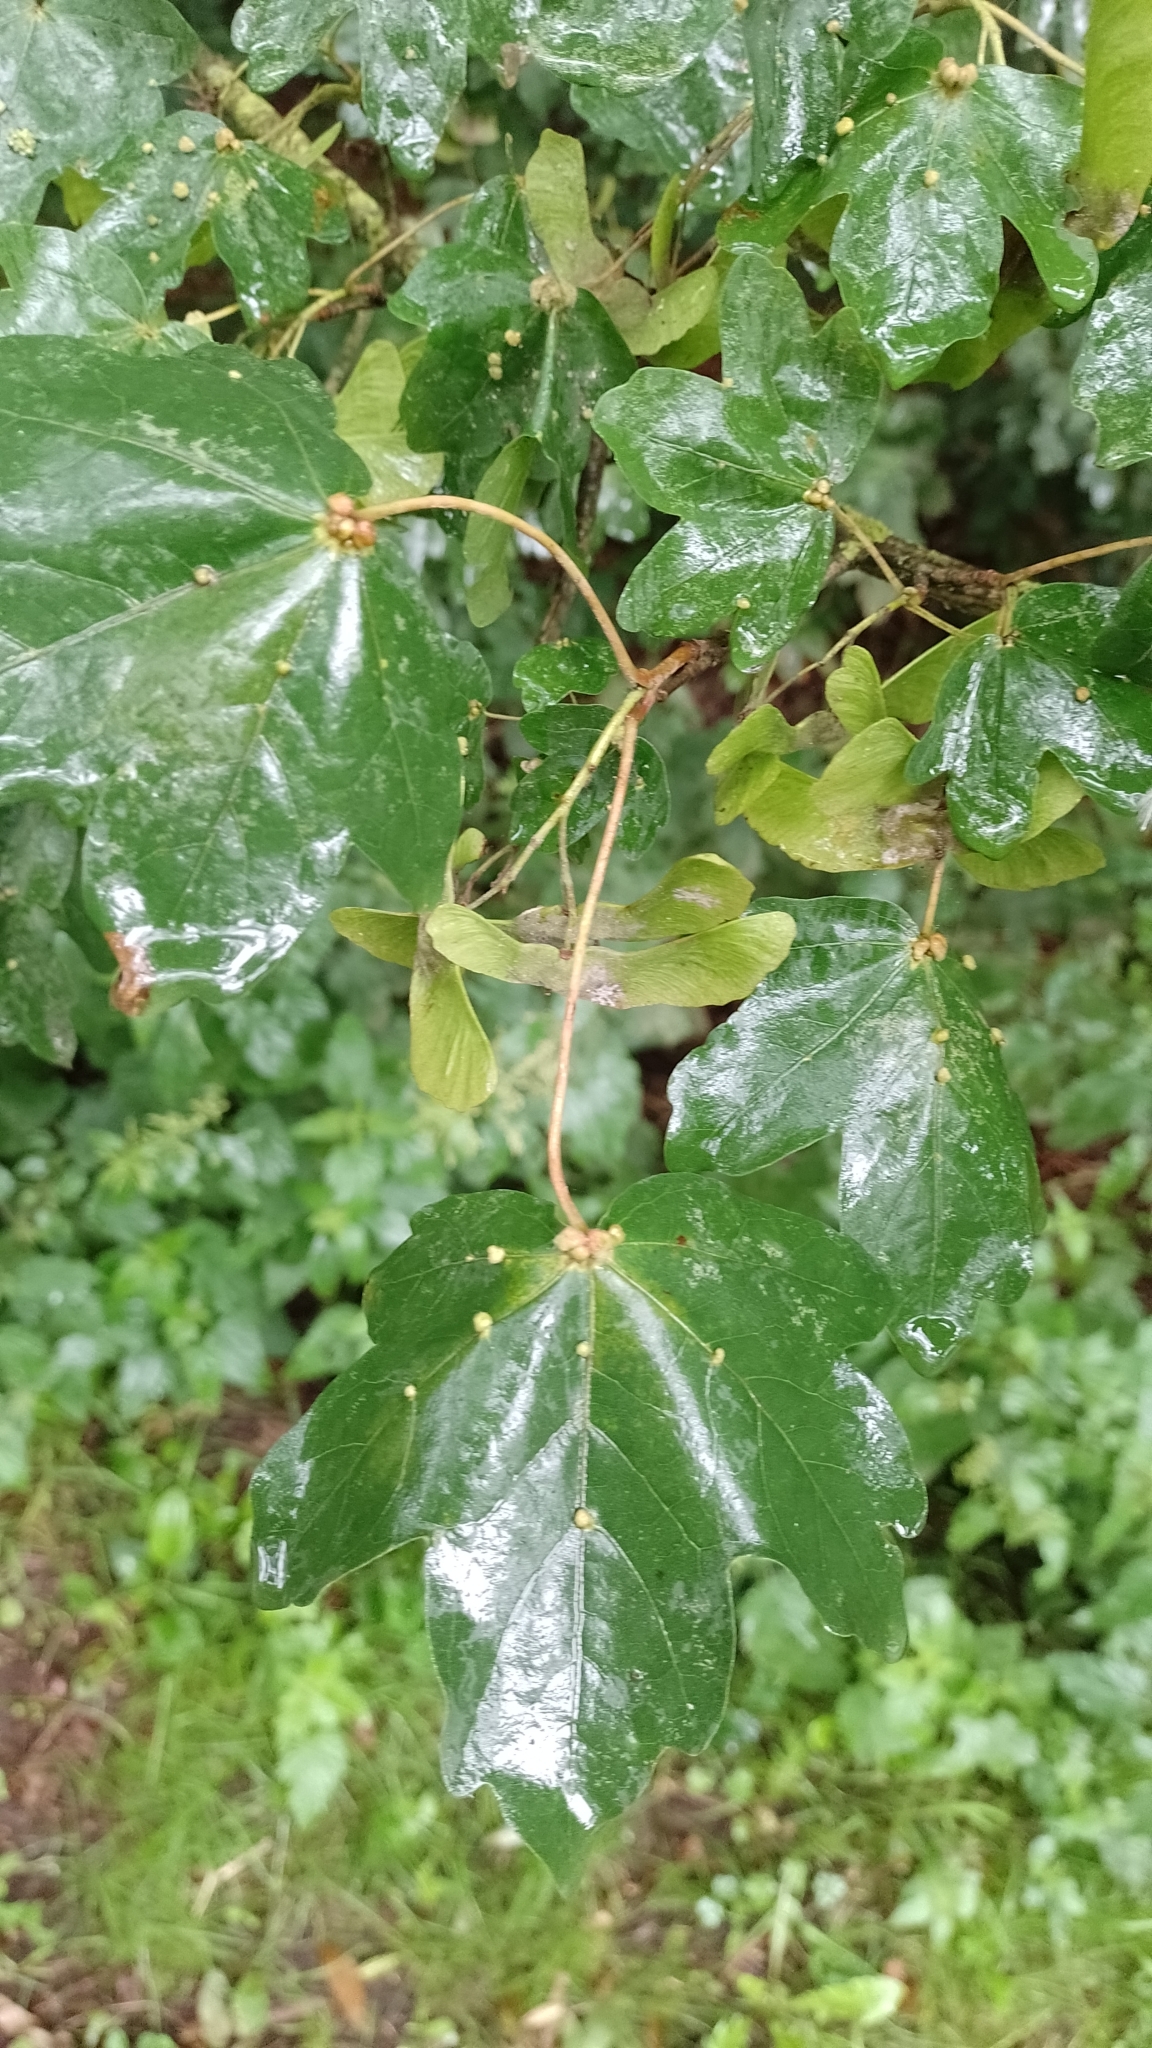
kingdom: Animalia
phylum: Arthropoda
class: Arachnida
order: Trombidiformes
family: Eriophyidae
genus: Aceria
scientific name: Aceria macrochelus
